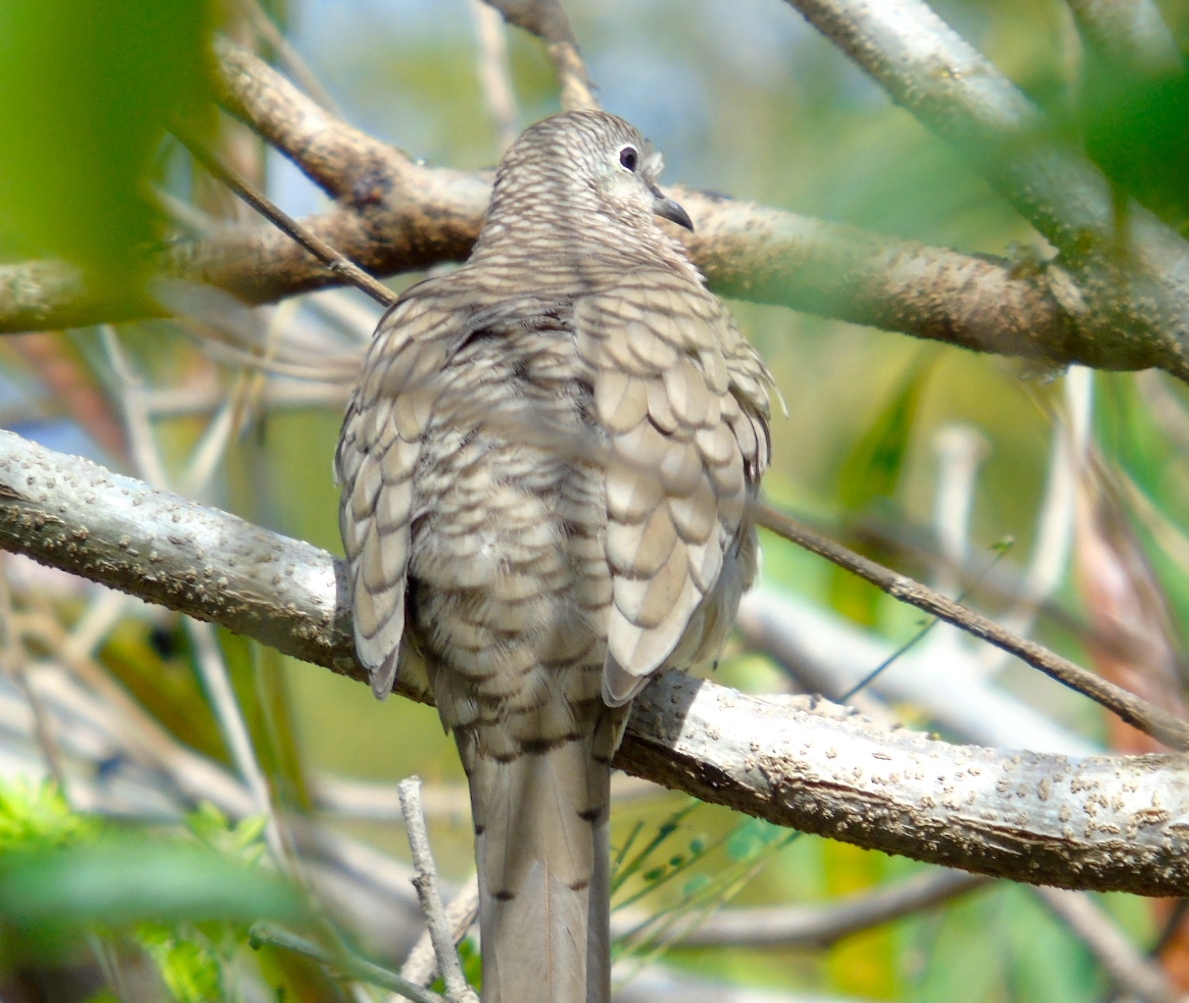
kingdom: Animalia
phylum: Chordata
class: Aves
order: Columbiformes
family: Columbidae
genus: Columbina
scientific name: Columbina inca
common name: Inca dove
